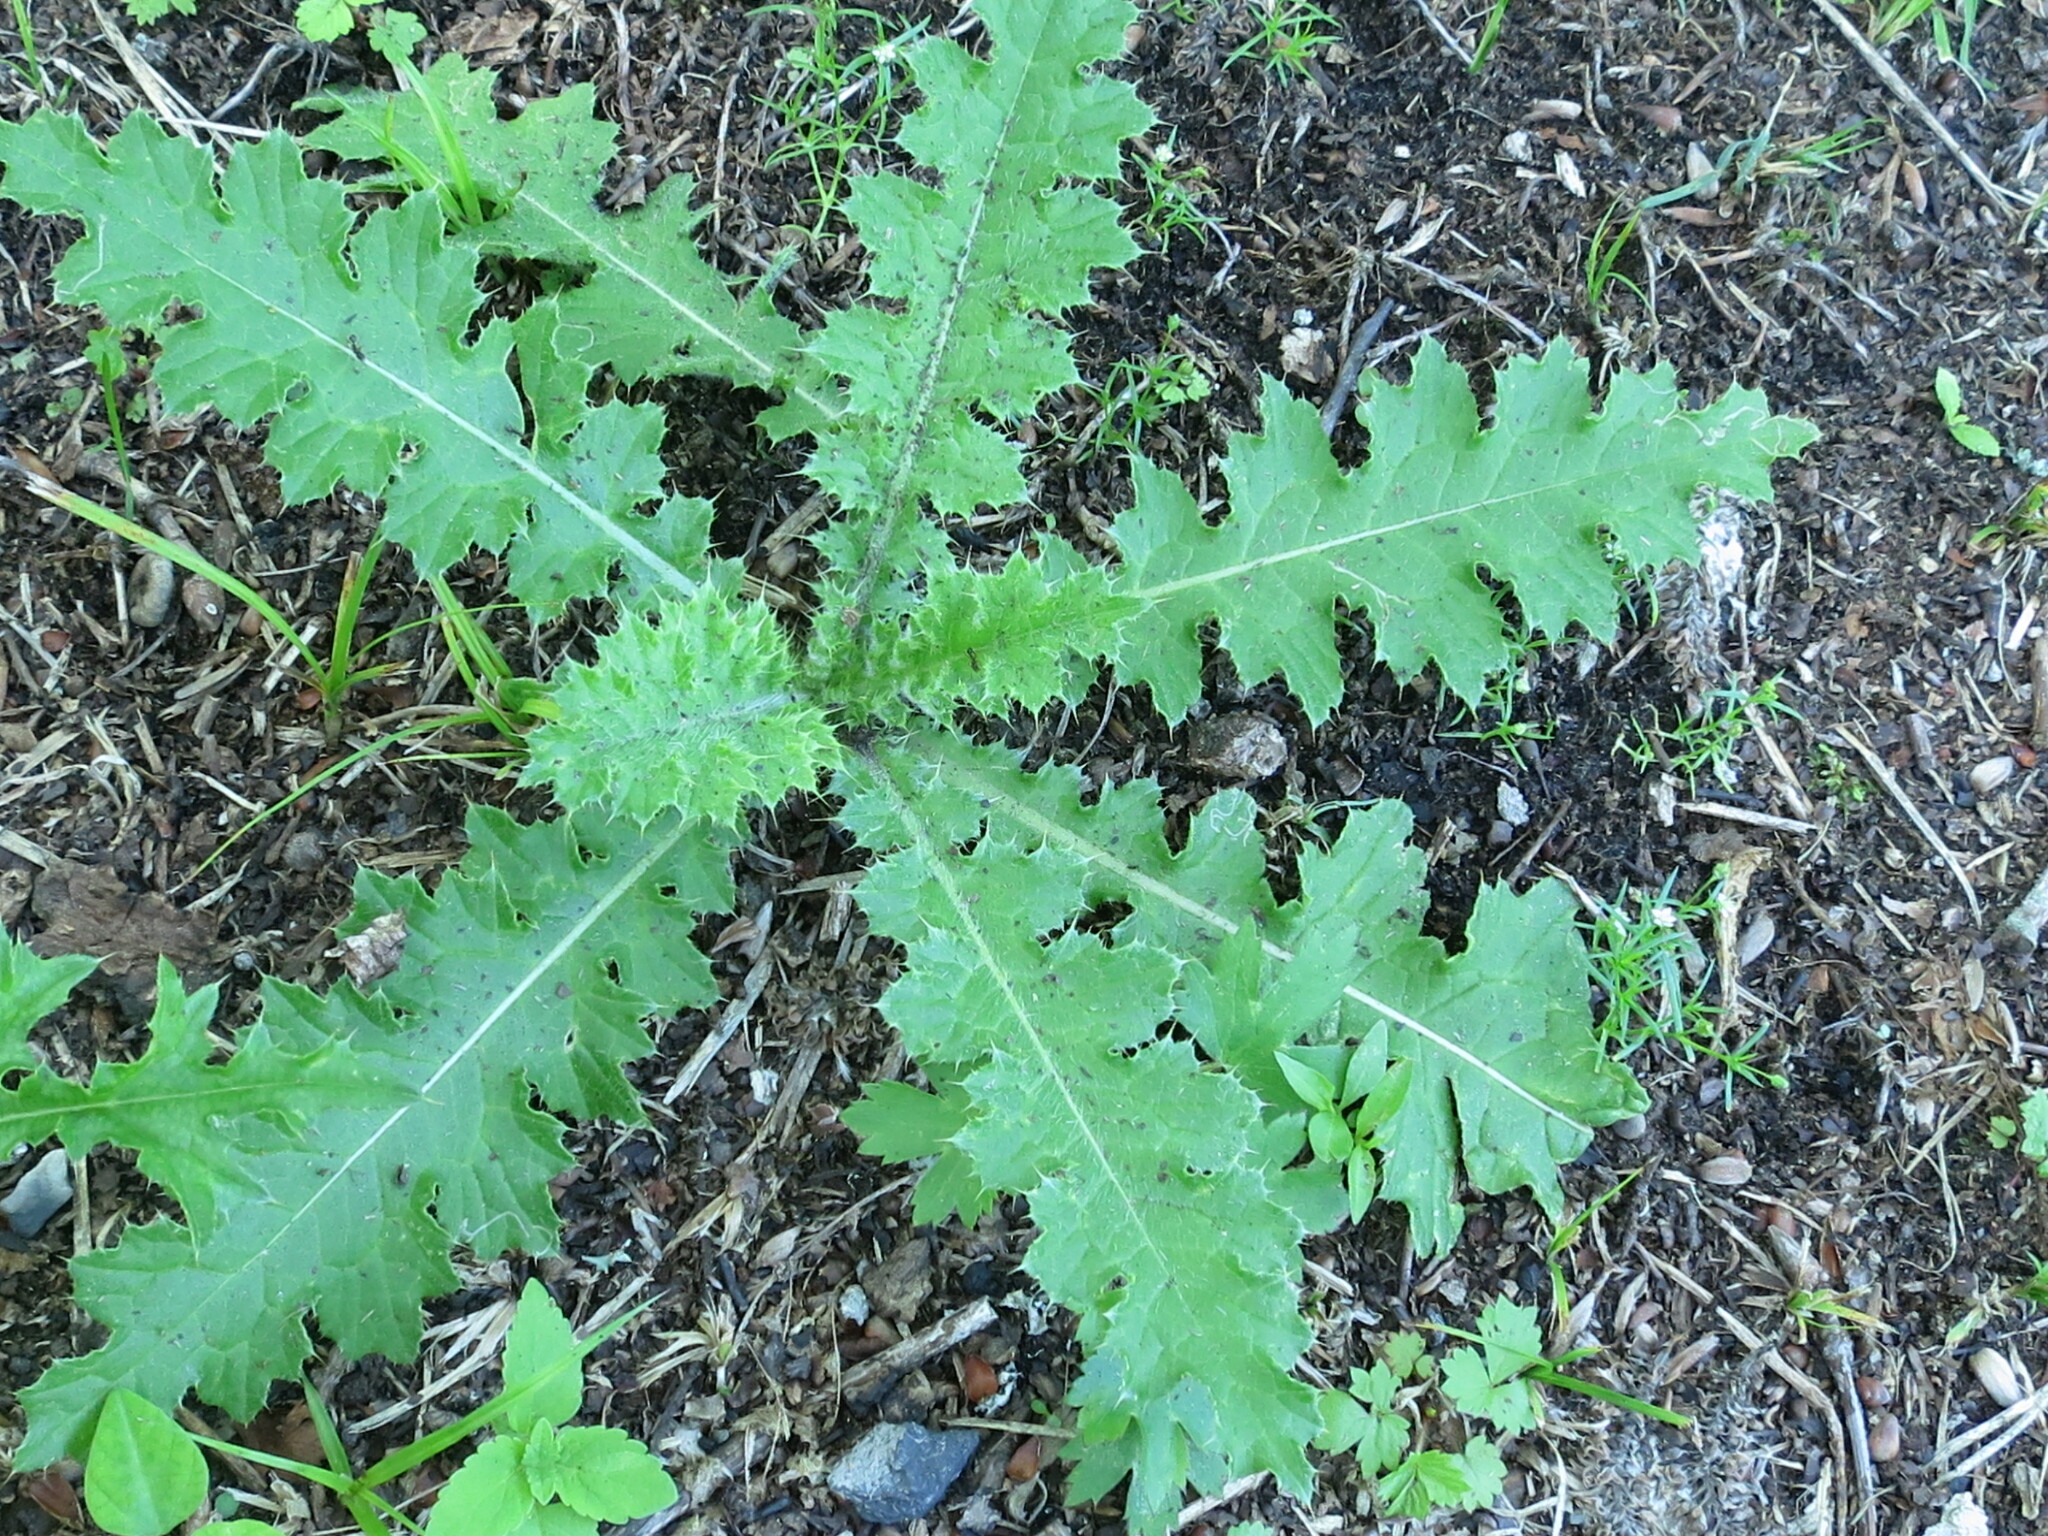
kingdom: Plantae
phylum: Tracheophyta
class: Magnoliopsida
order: Asterales
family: Asteraceae
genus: Carduus
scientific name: Carduus crispus
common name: Welted thistle
